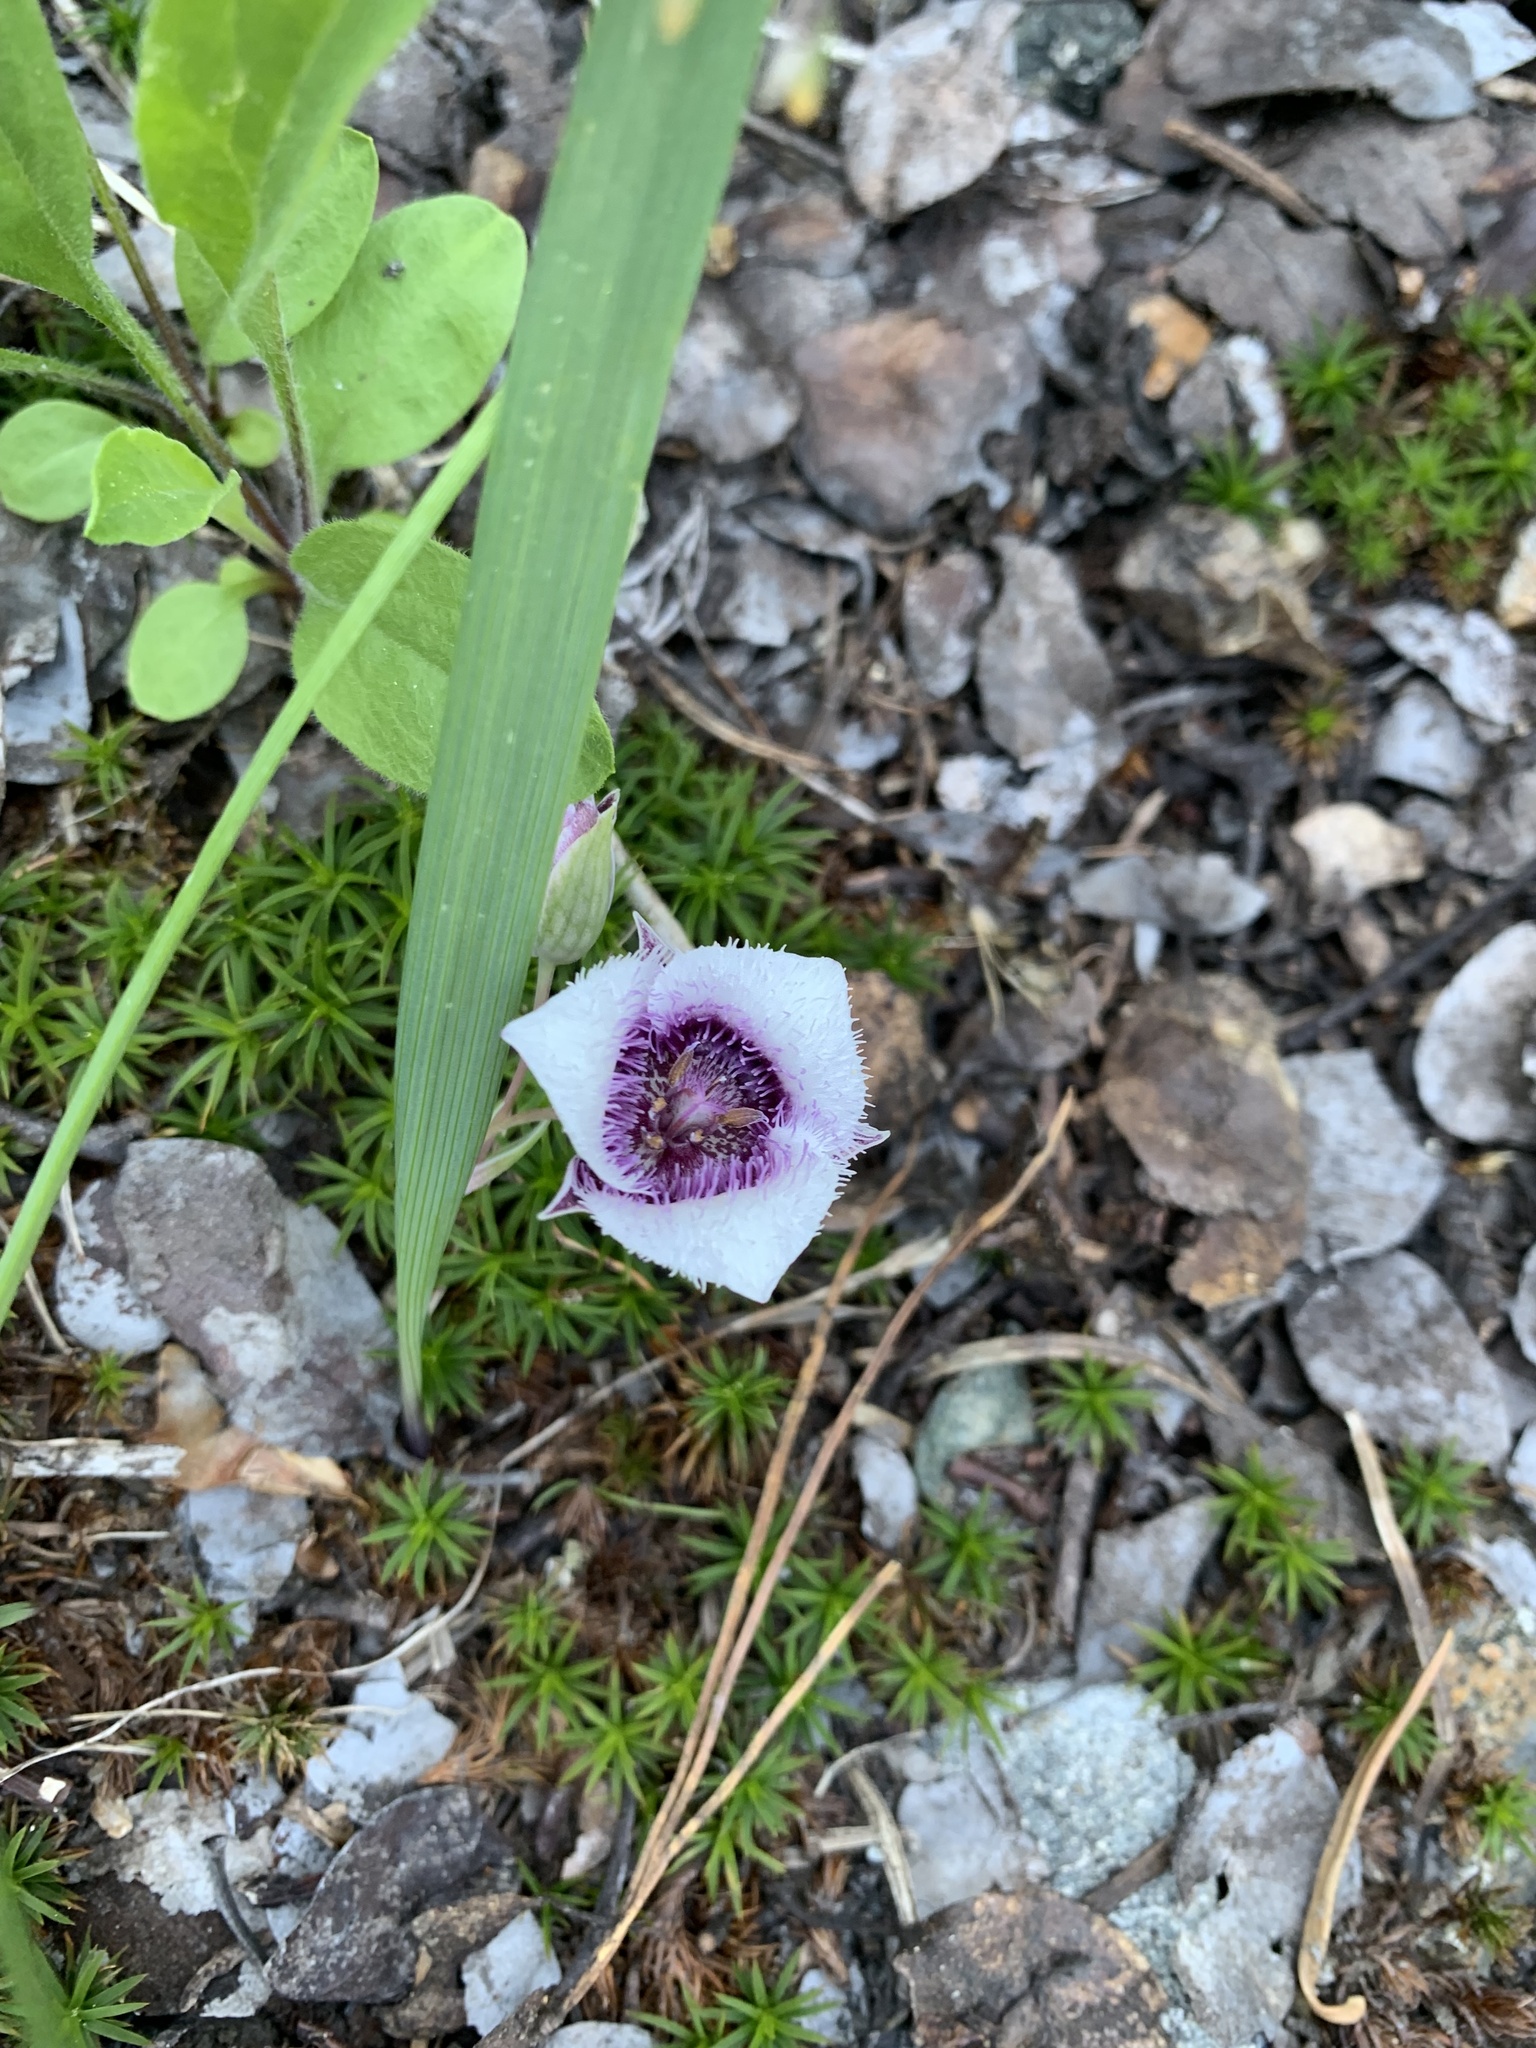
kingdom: Plantae
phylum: Tracheophyta
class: Liliopsida
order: Liliales
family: Liliaceae
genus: Calochortus
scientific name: Calochortus elegans
